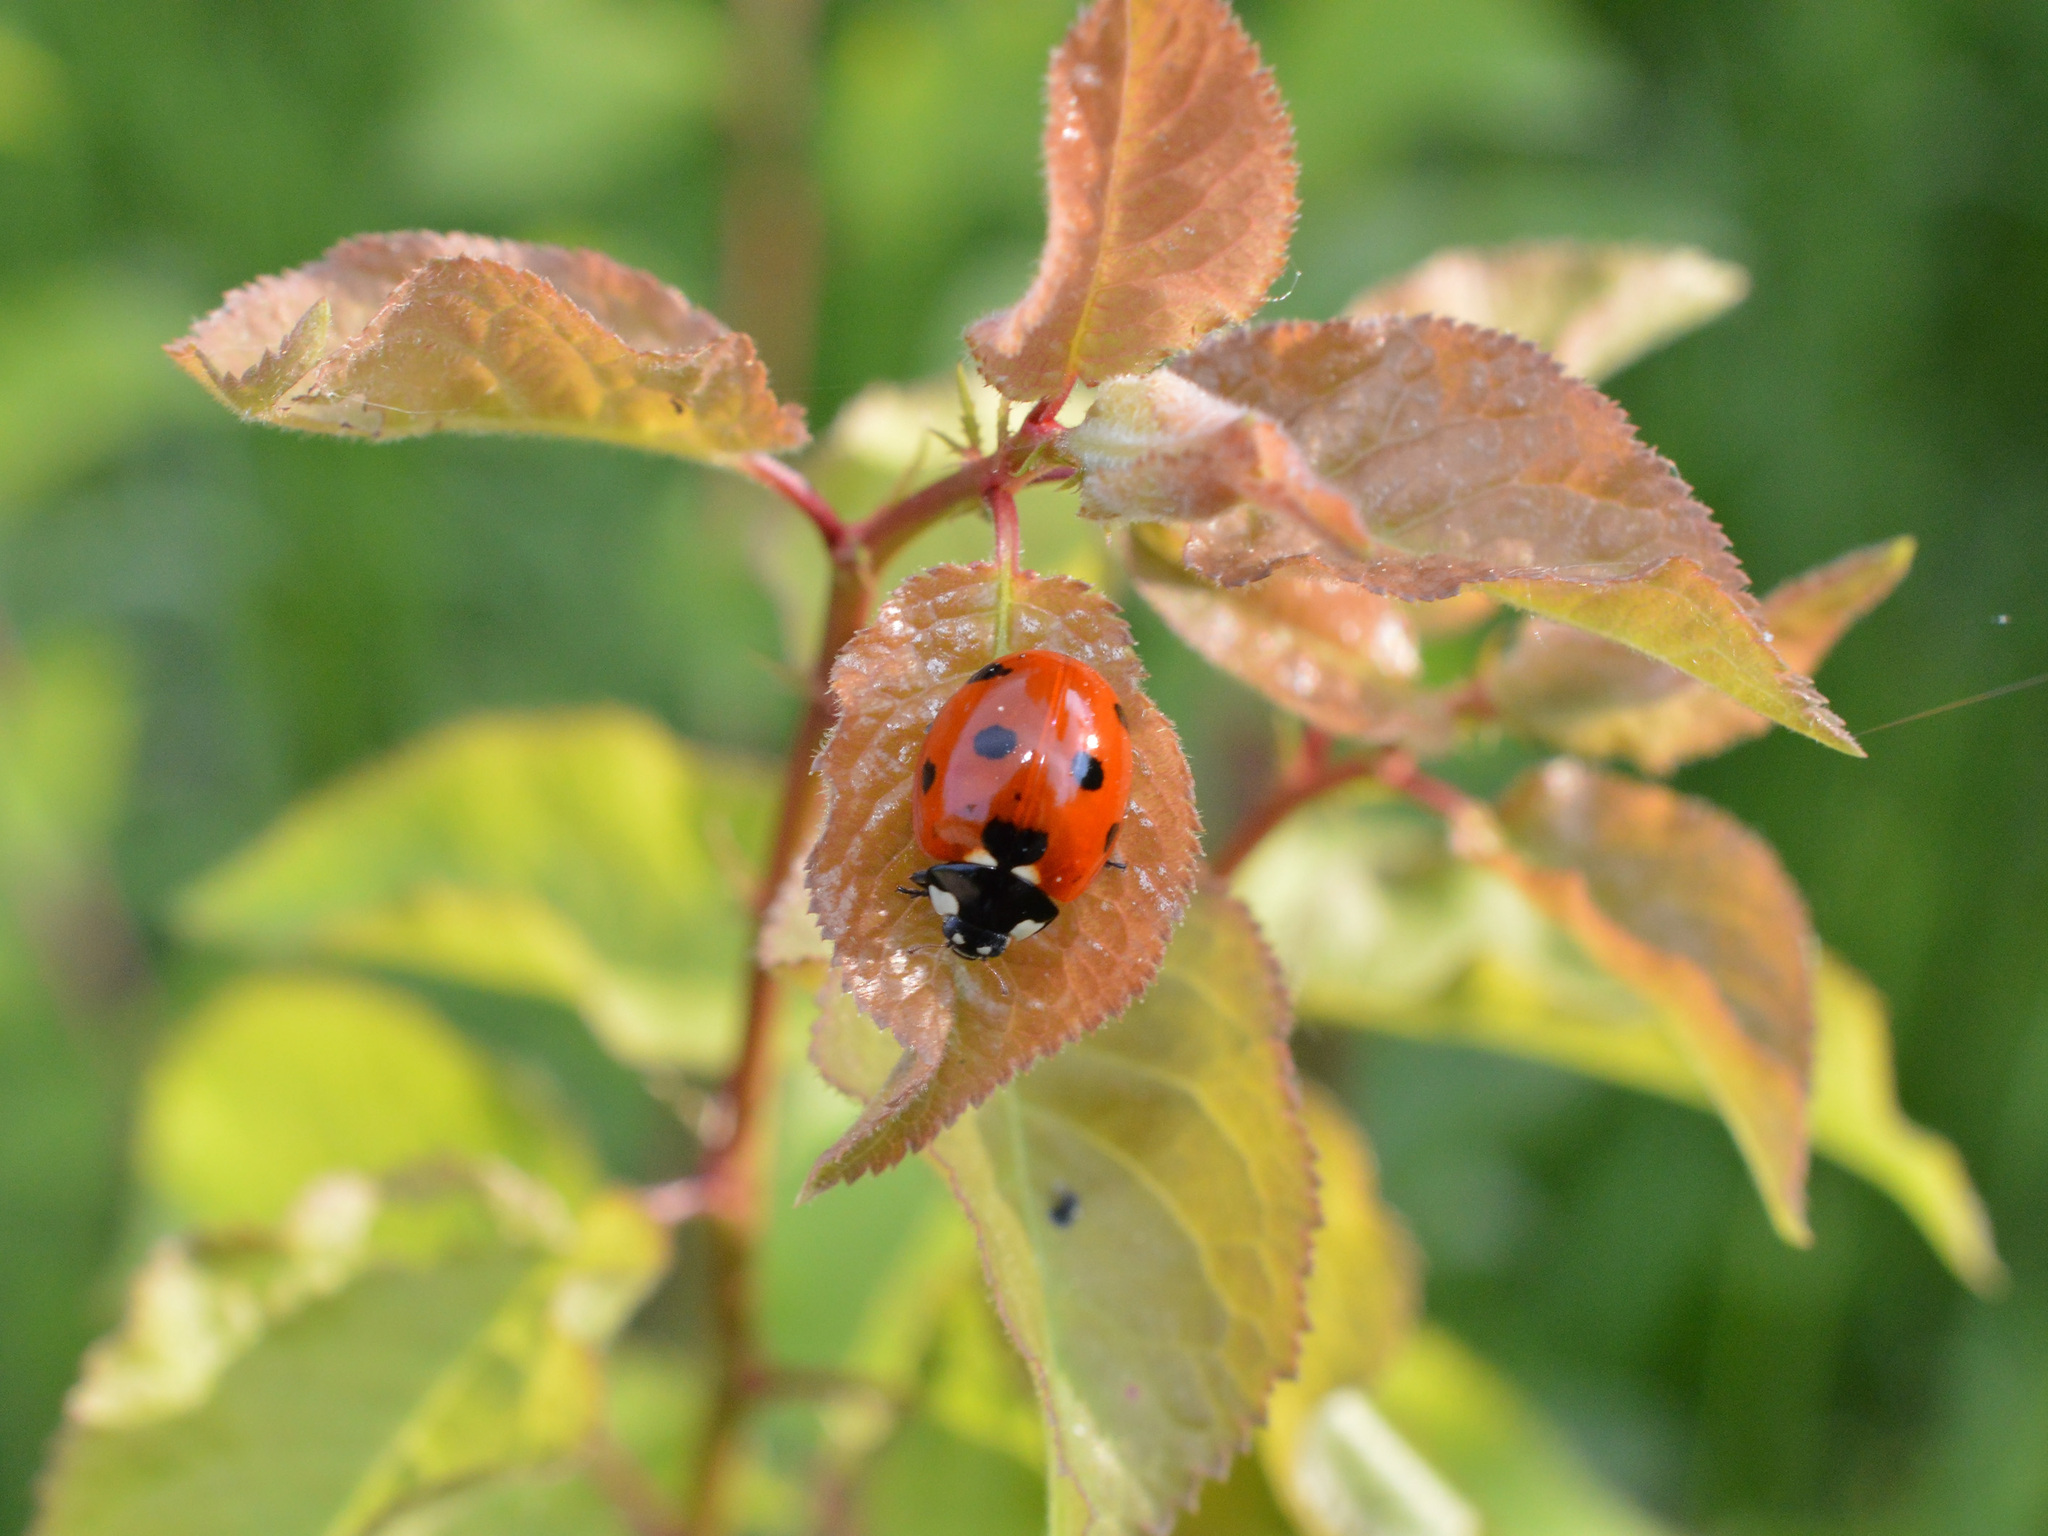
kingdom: Animalia
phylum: Arthropoda
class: Insecta
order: Coleoptera
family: Coccinellidae
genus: Coccinella
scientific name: Coccinella septempunctata
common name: Sevenspotted lady beetle
